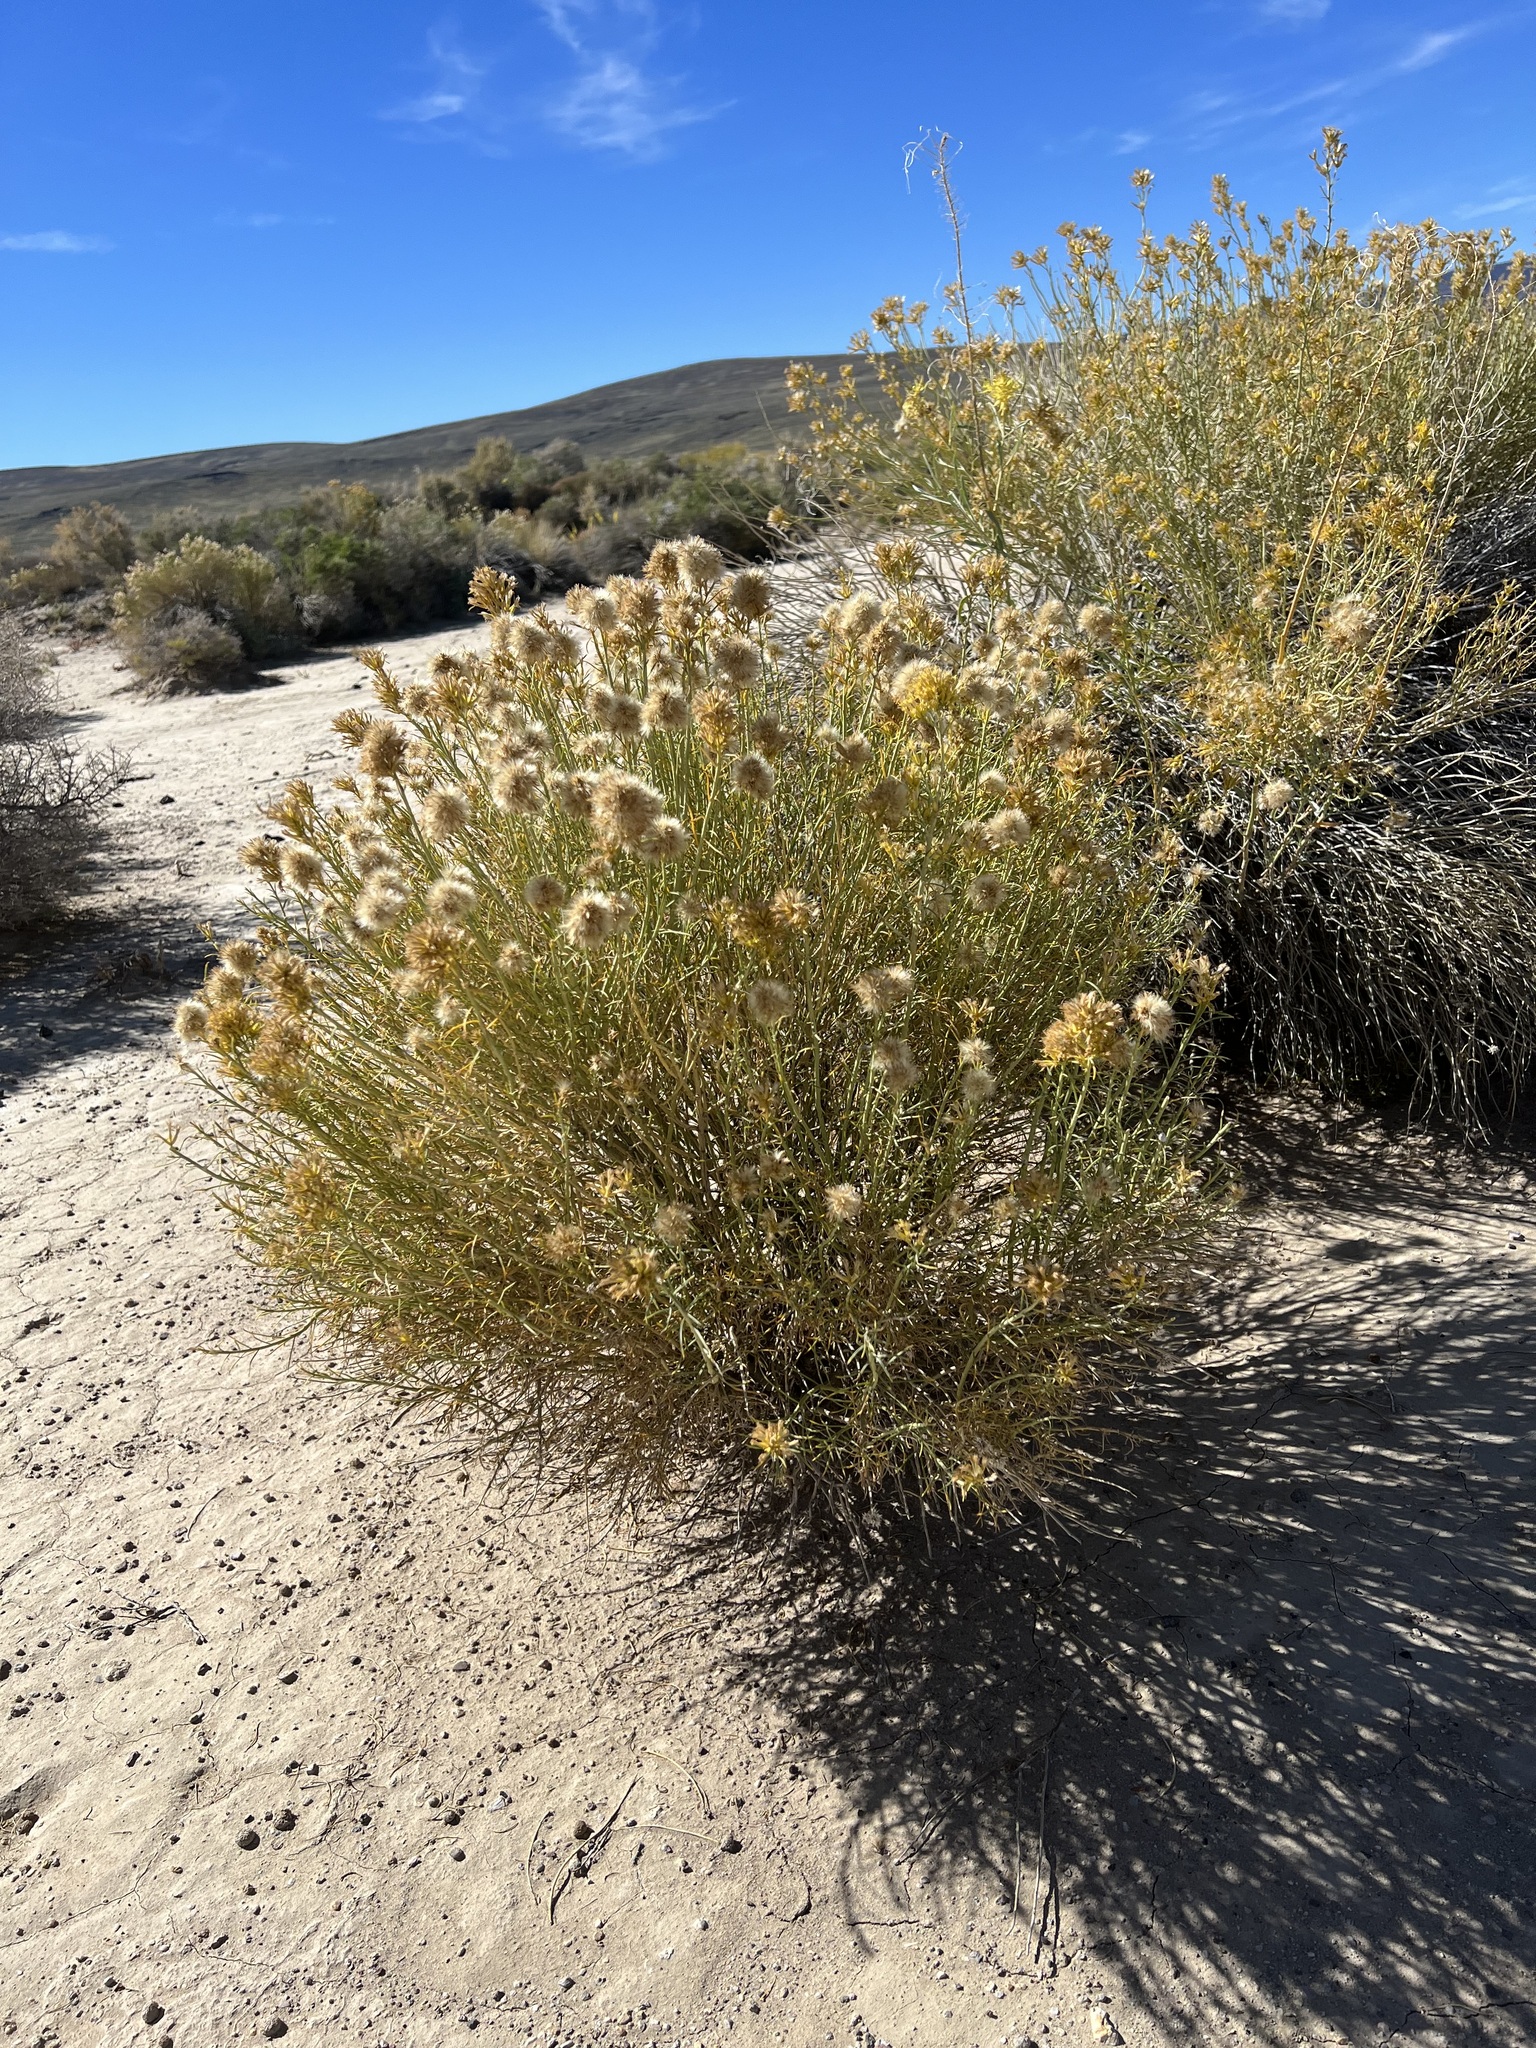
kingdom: Plantae
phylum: Tracheophyta
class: Magnoliopsida
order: Asterales
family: Asteraceae
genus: Ericameria
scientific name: Ericameria nauseosa
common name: Rubber rabbitbrush
